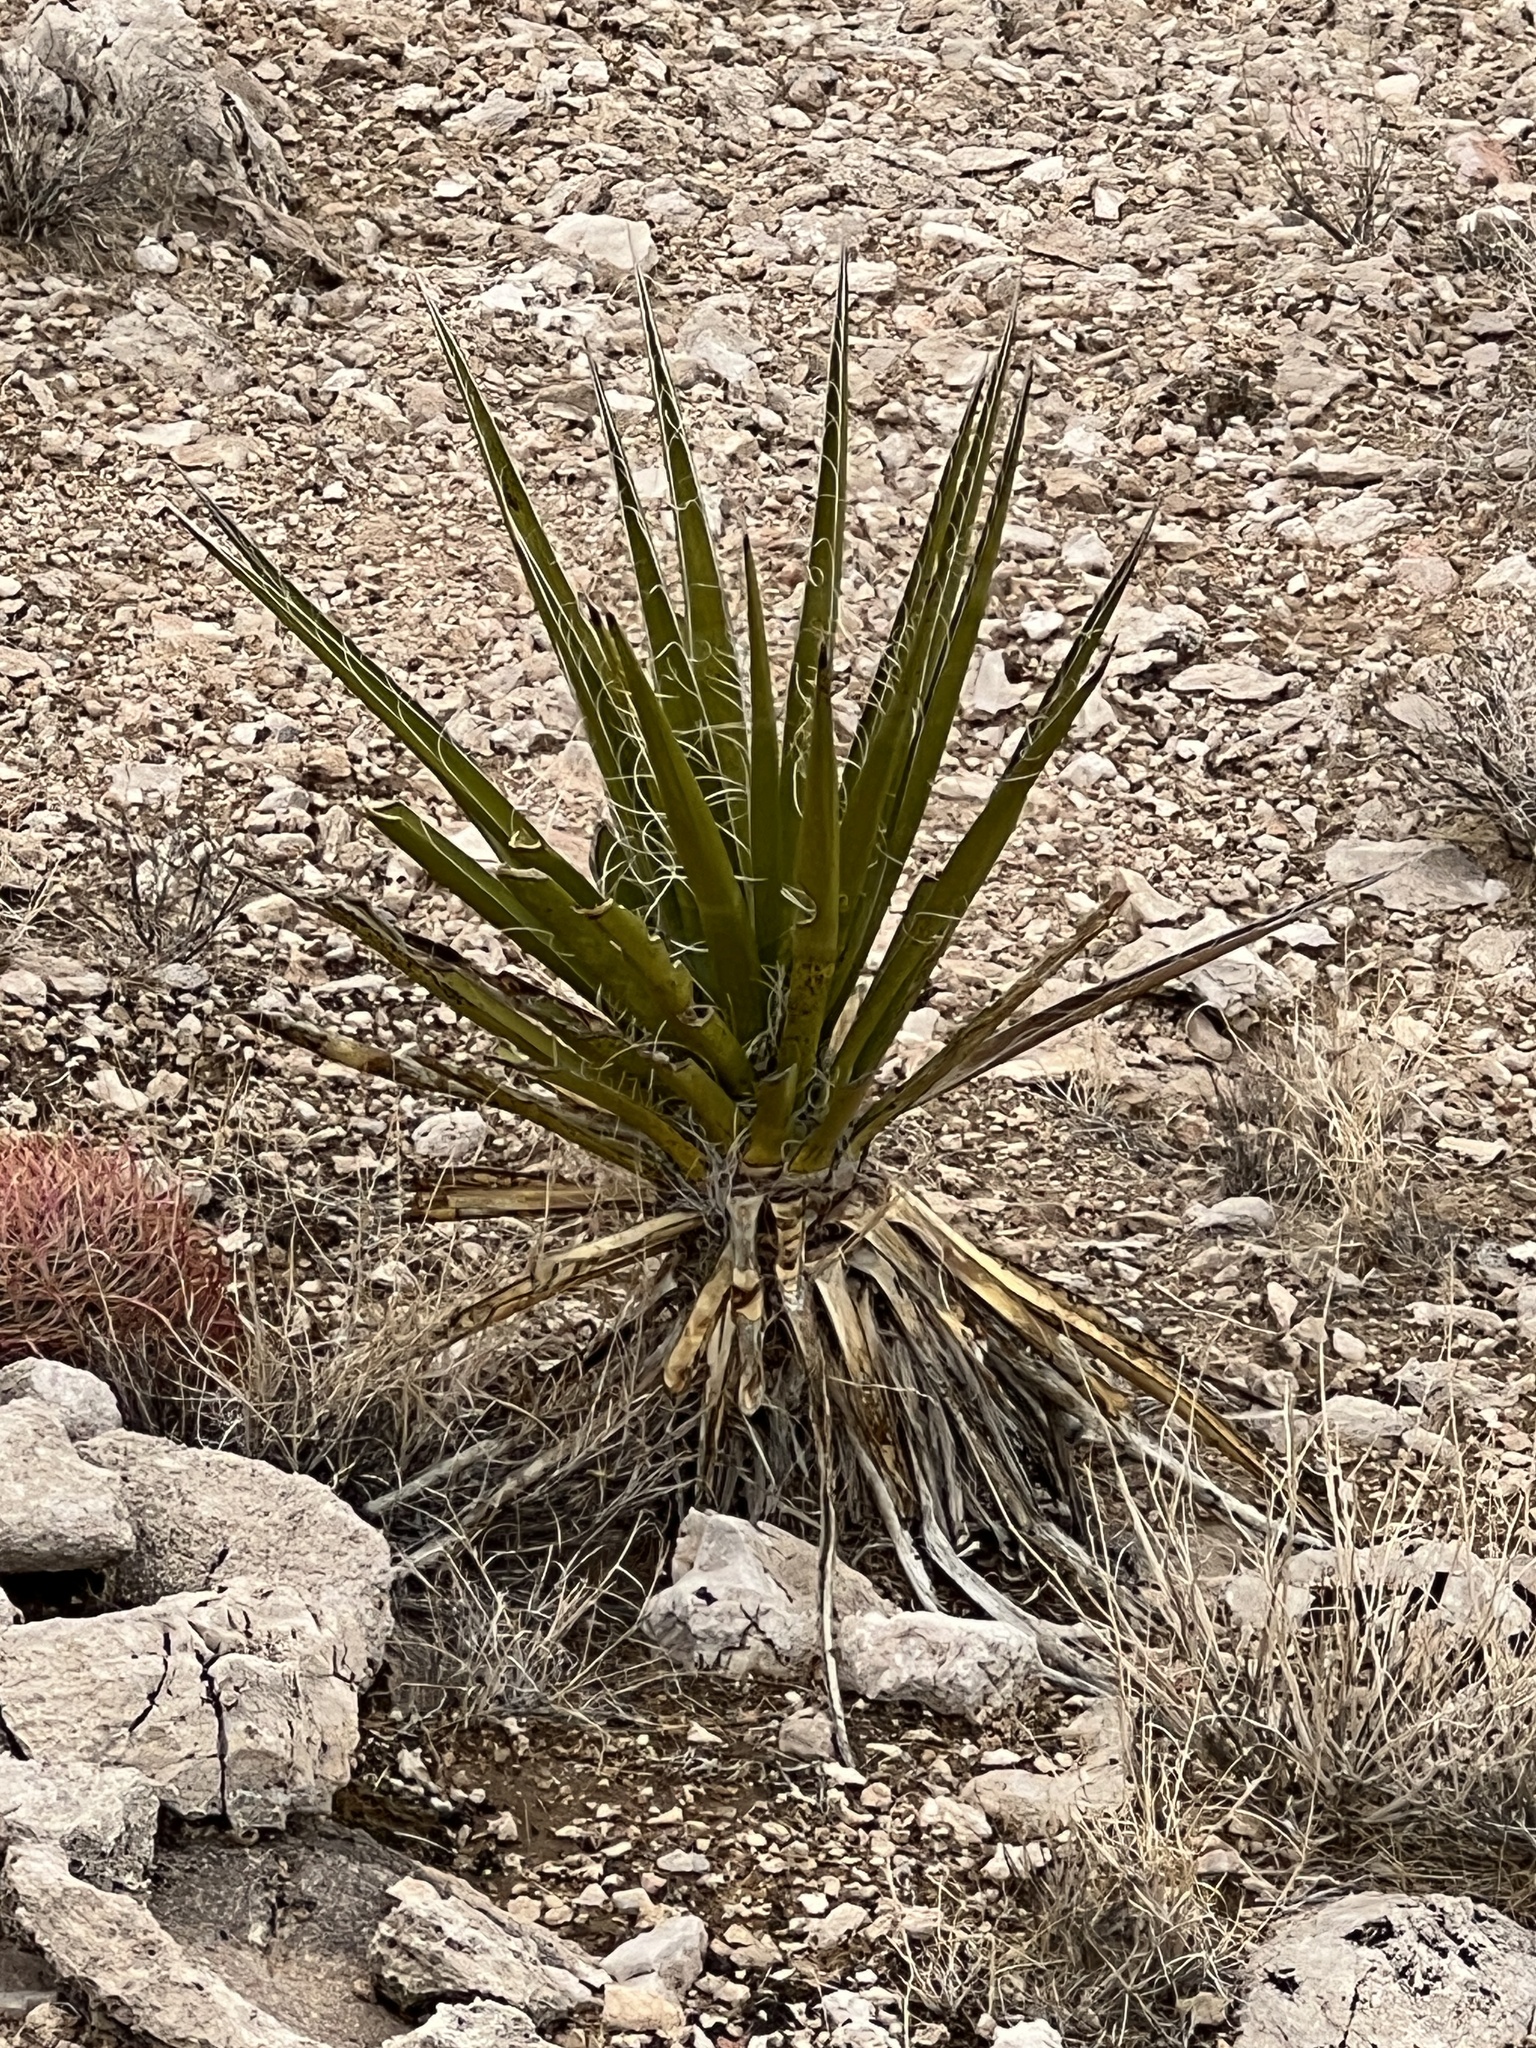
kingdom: Plantae
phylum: Tracheophyta
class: Liliopsida
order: Asparagales
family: Asparagaceae
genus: Yucca
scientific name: Yucca baccata
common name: Banana yucca
